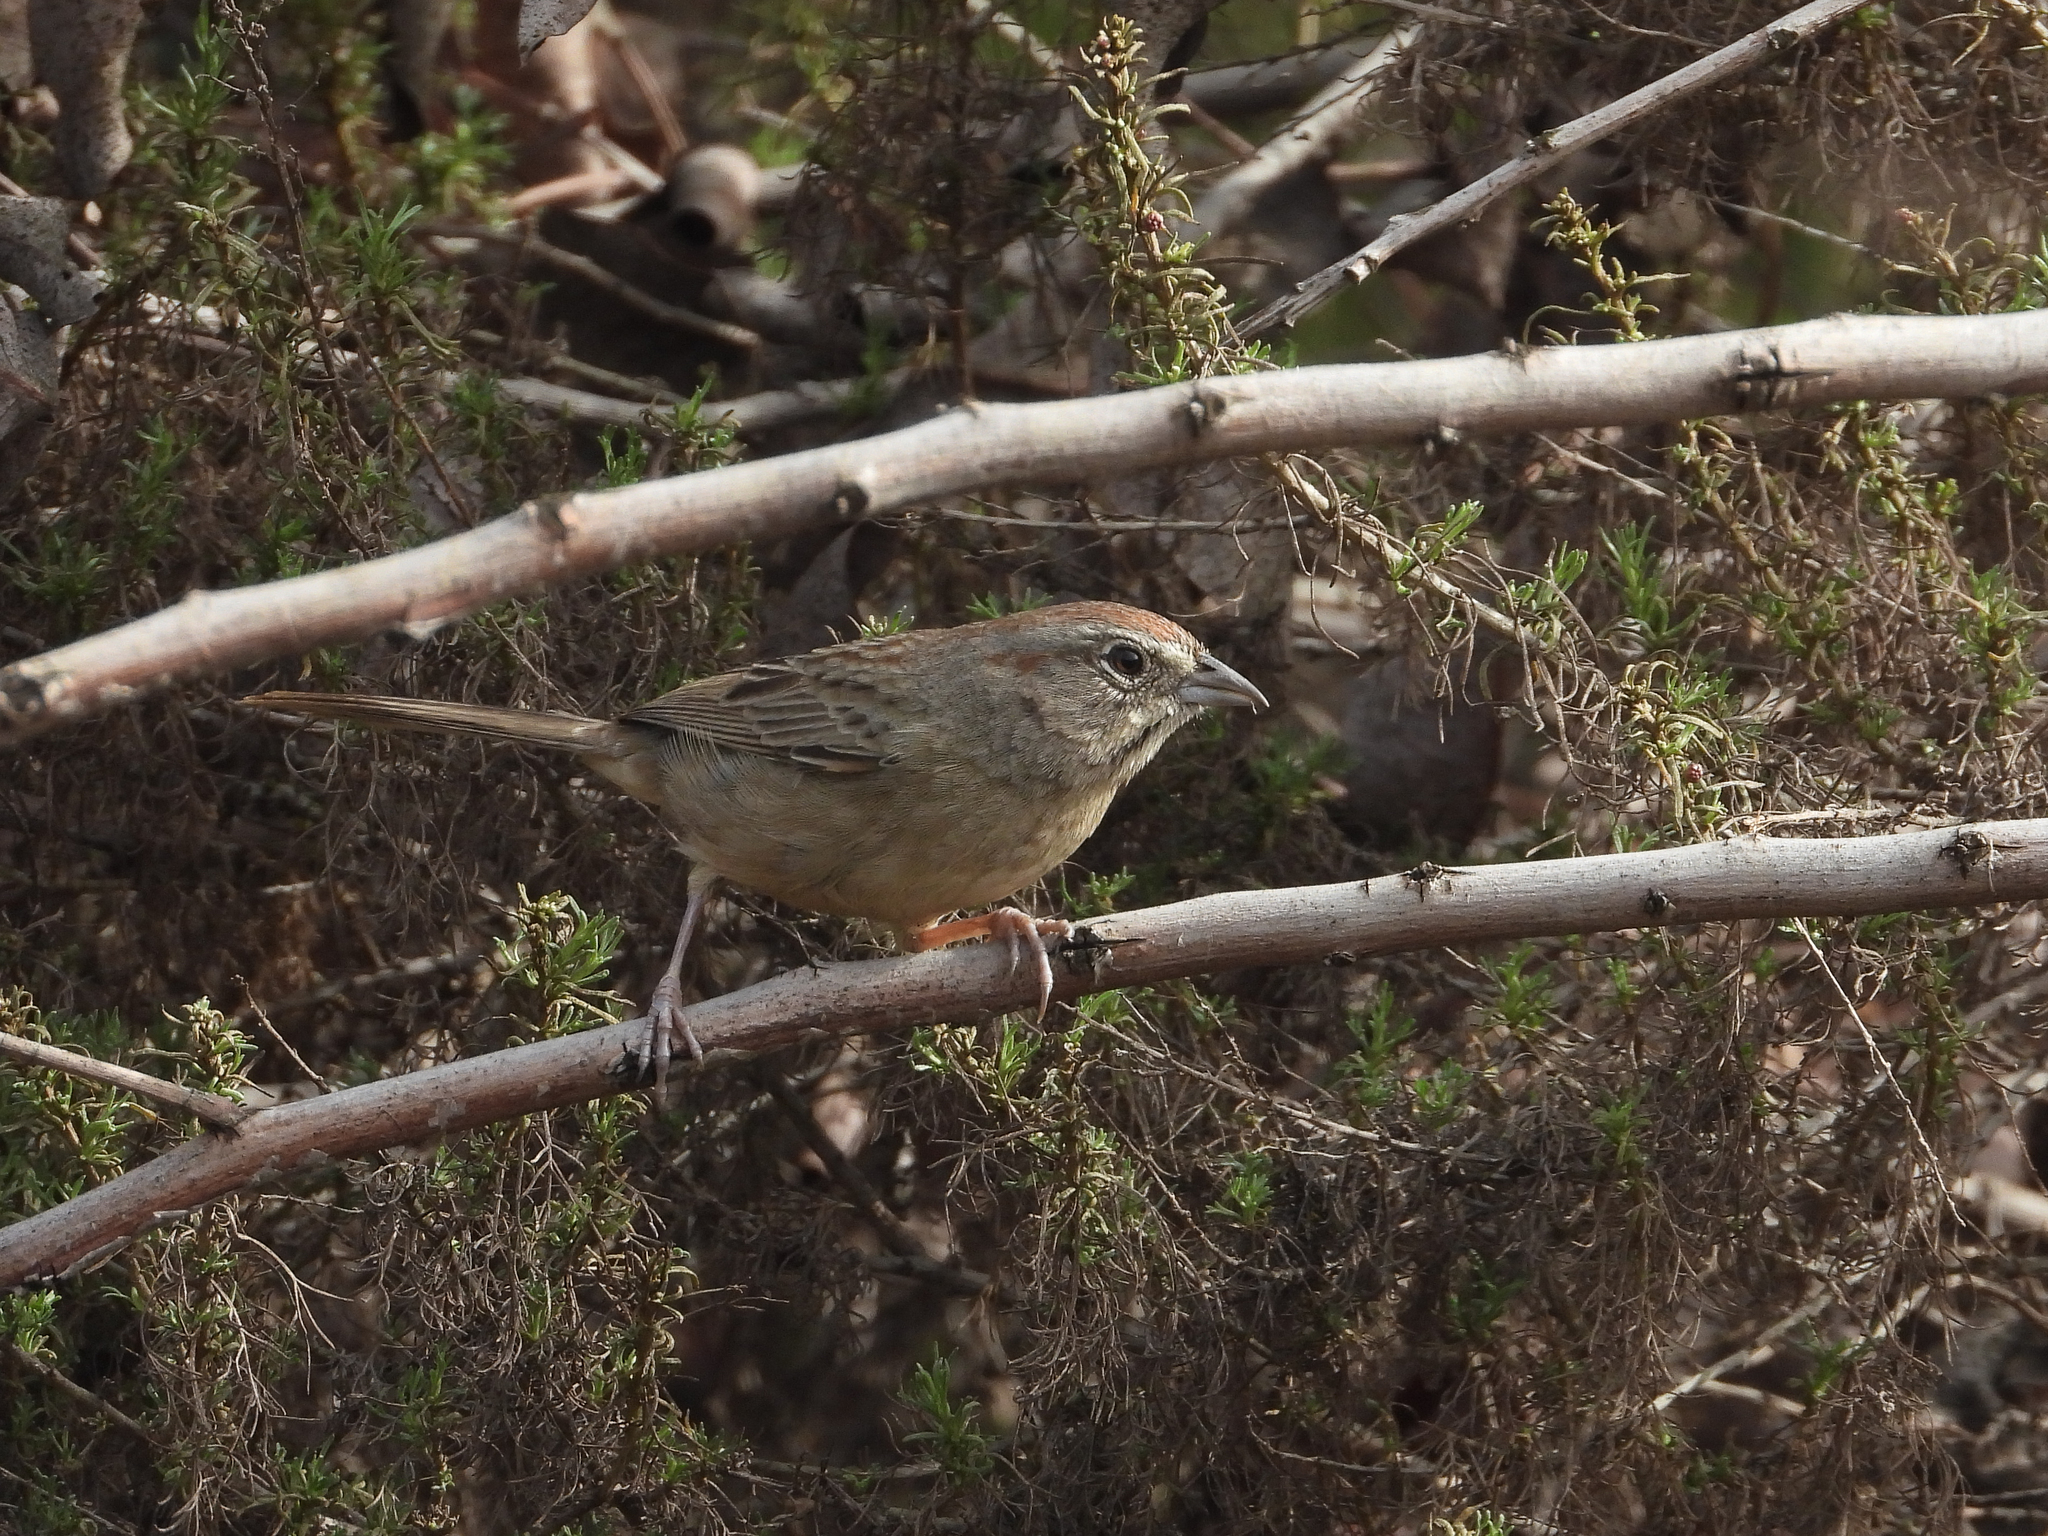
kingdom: Animalia
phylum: Chordata
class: Aves
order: Passeriformes
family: Passerellidae
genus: Aimophila
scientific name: Aimophila ruficeps
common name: Rufous-crowned sparrow
